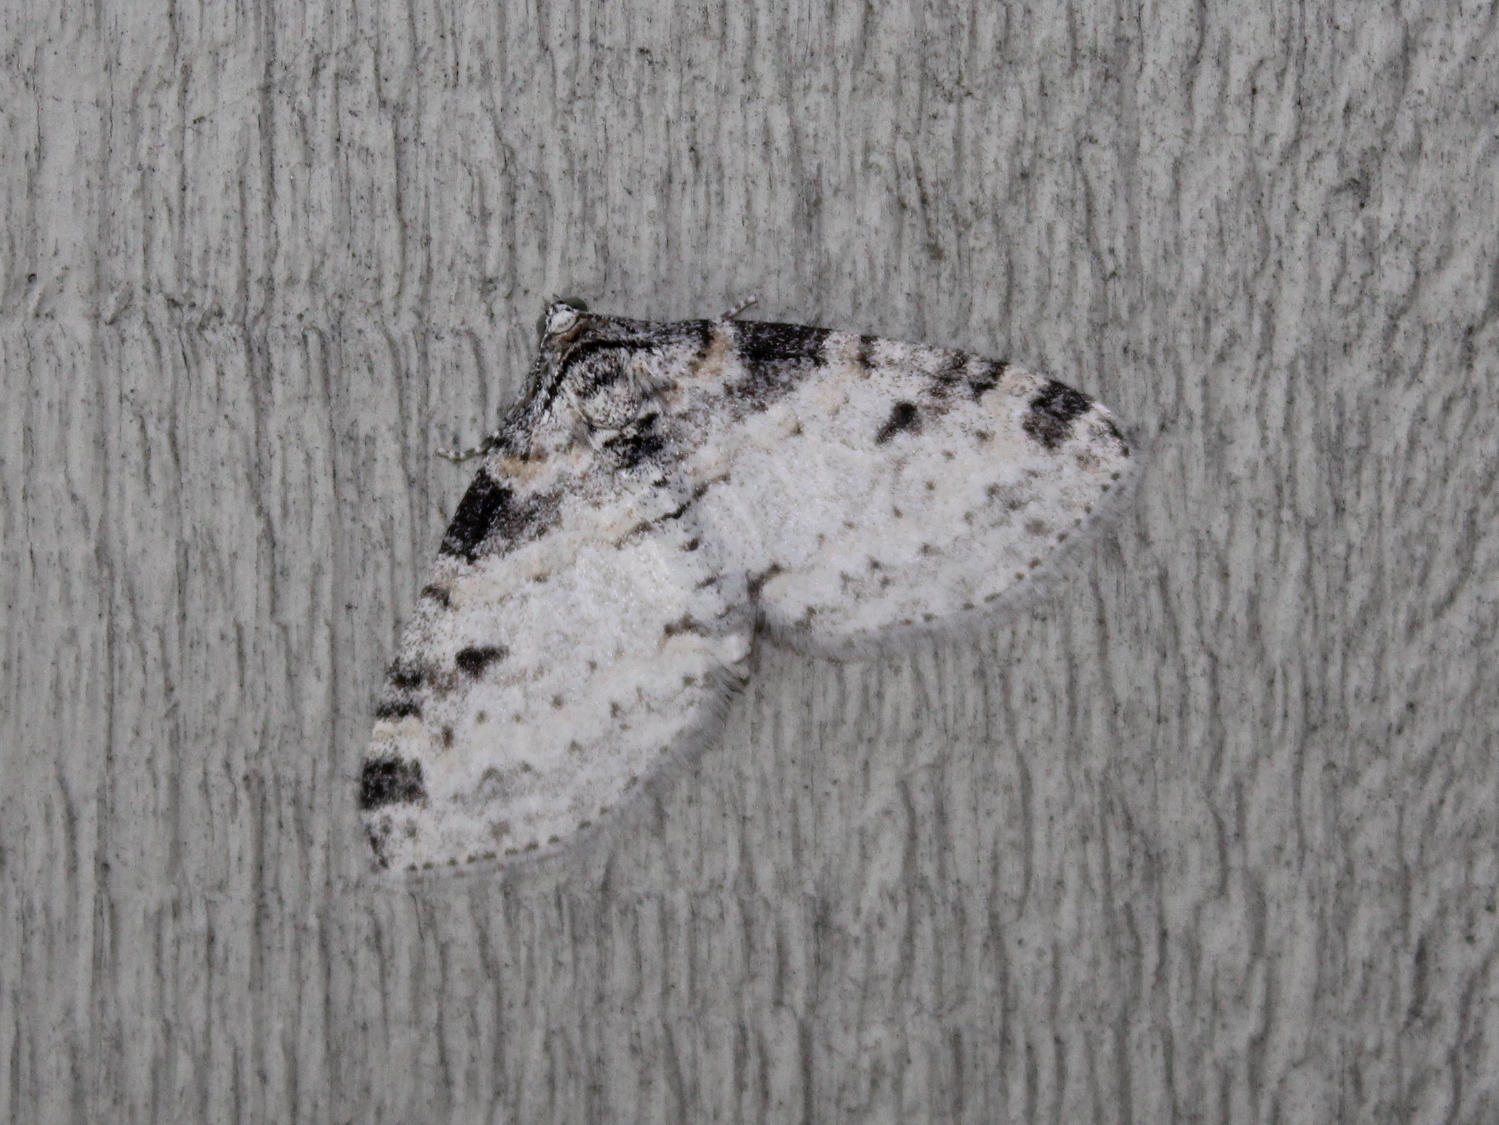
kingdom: Animalia
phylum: Arthropoda
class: Insecta
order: Lepidoptera
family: Geometridae
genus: Lobophora
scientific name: Lobophora nivigerata
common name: Powdered bigwing
